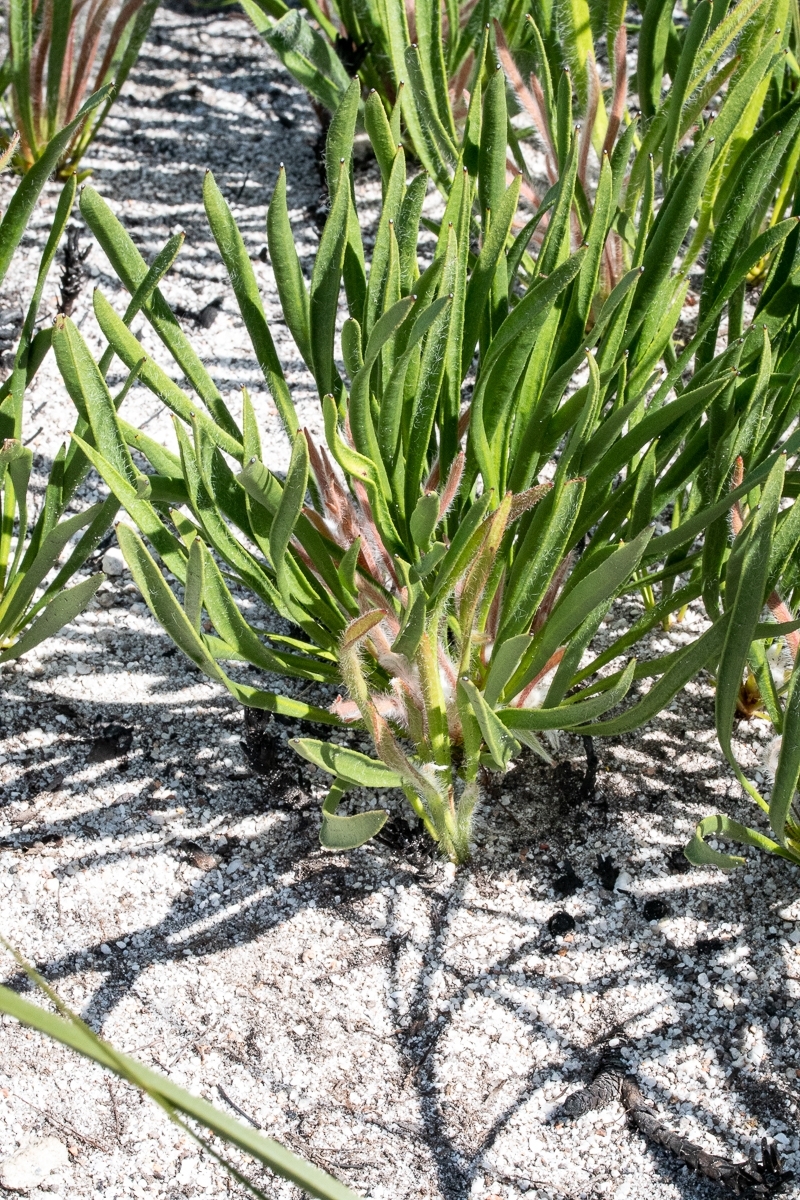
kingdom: Plantae
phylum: Tracheophyta
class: Magnoliopsida
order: Proteales
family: Proteaceae
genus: Protea
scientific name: Protea scabra
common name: Sandpaper-leaf sugarbush
